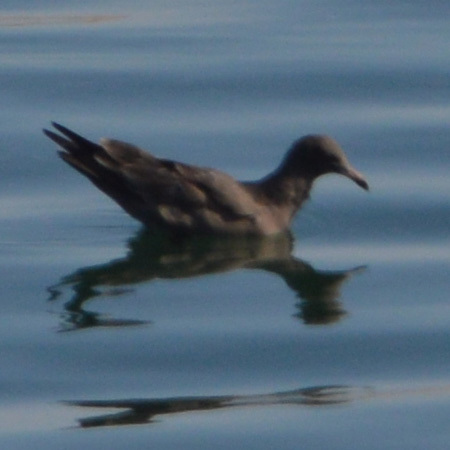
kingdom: Animalia
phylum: Chordata
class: Aves
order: Charadriiformes
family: Laridae
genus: Larus
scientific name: Larus heermanni
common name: Heermann's gull
